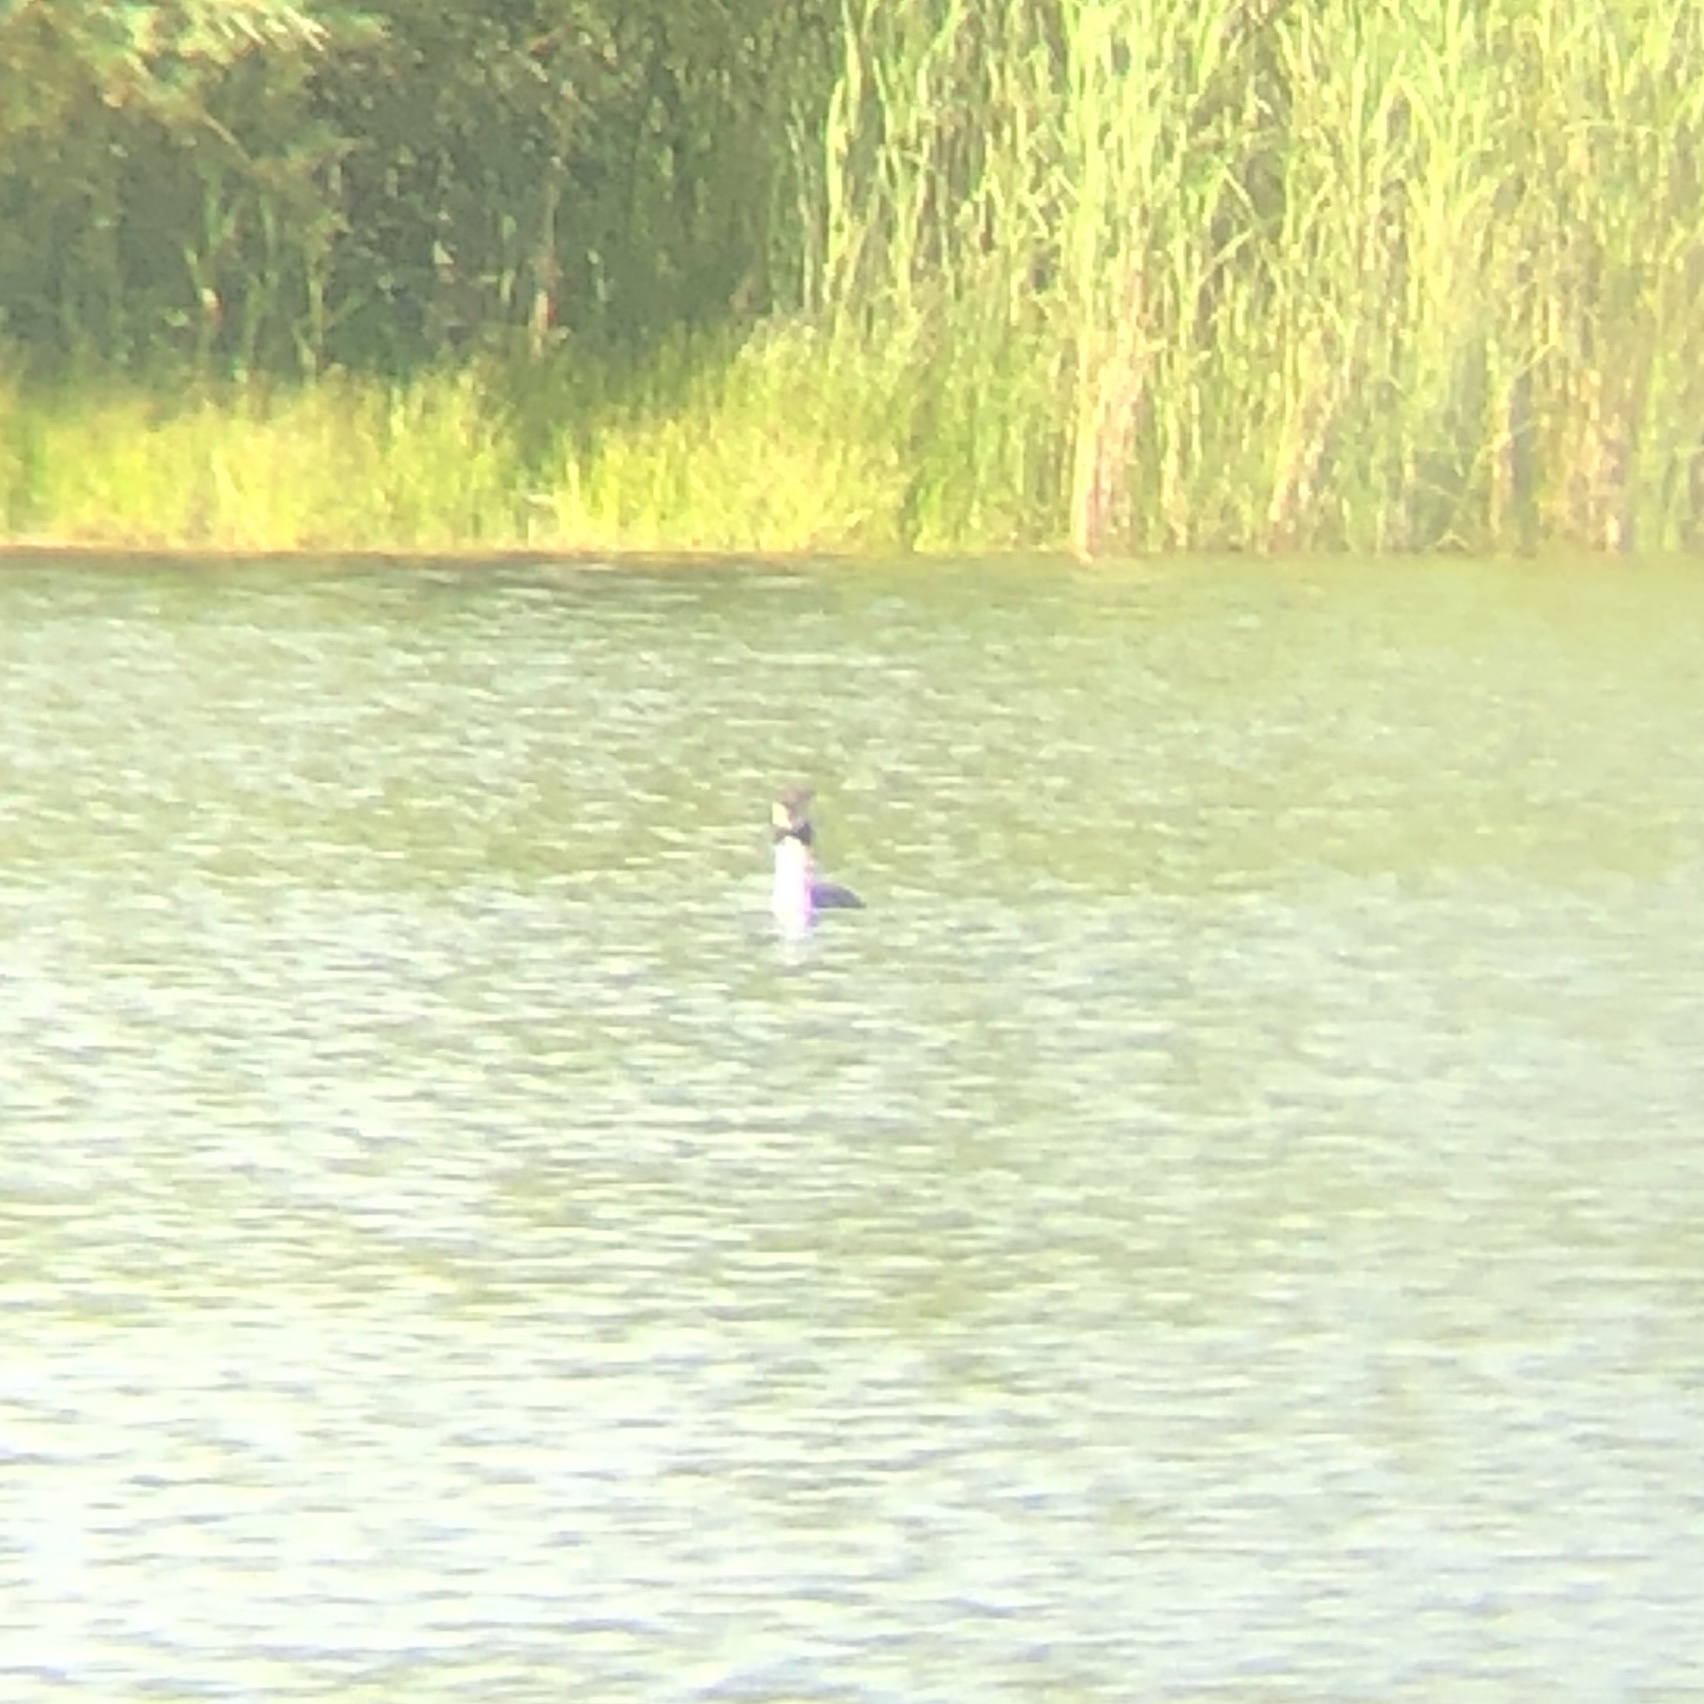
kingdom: Animalia
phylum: Chordata
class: Aves
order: Podicipediformes
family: Podicipedidae
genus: Podiceps
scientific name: Podiceps cristatus
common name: Great crested grebe
